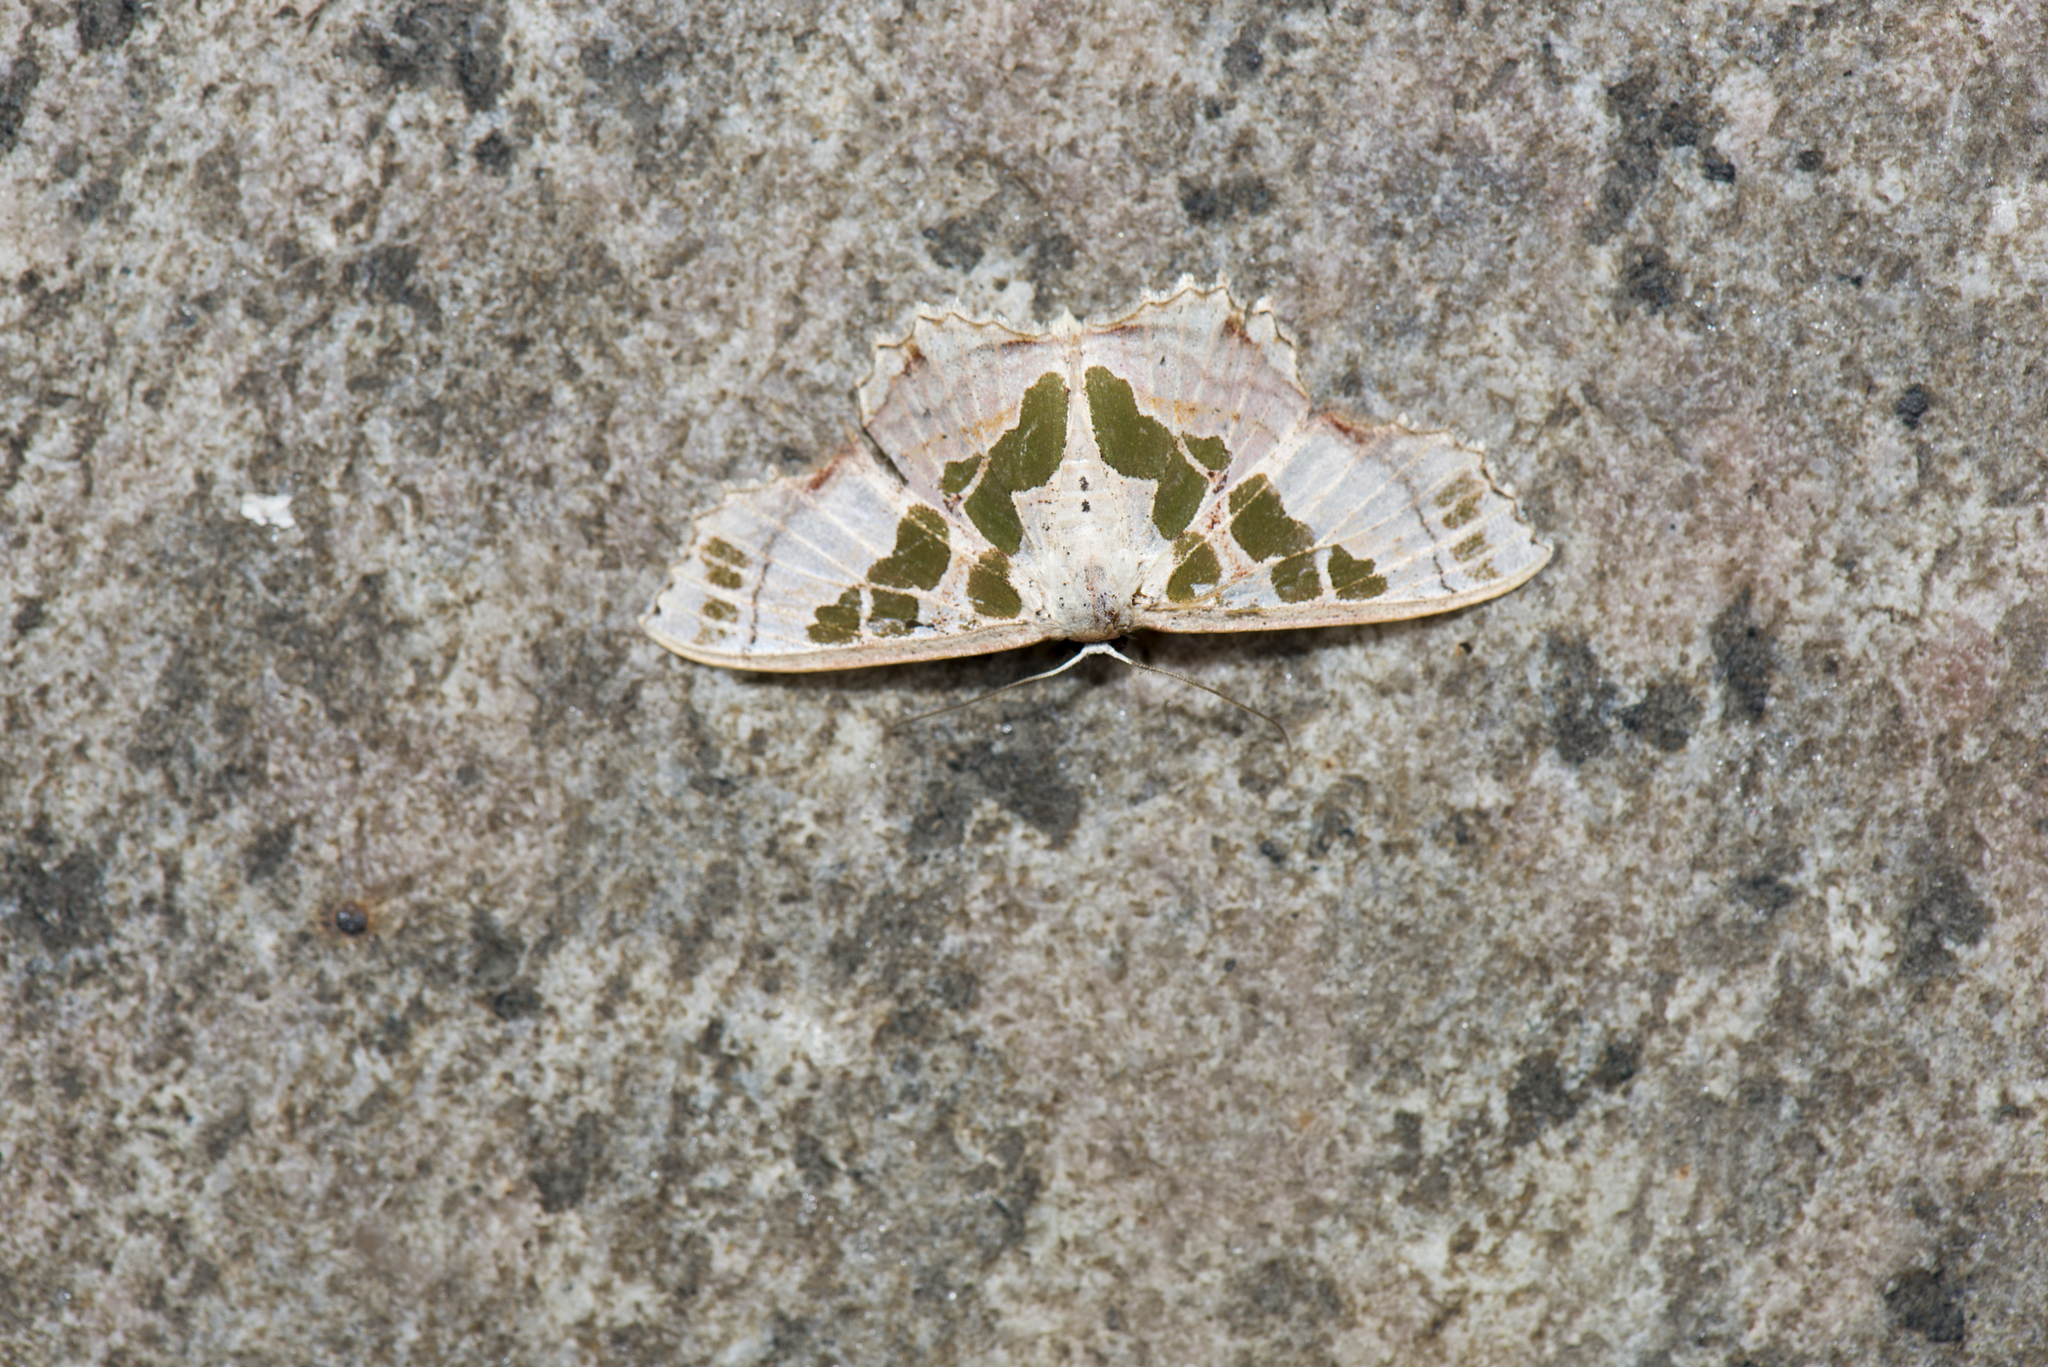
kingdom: Animalia
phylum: Arthropoda
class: Insecta
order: Lepidoptera
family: Geometridae
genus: Scopula
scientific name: Scopula divisaria
